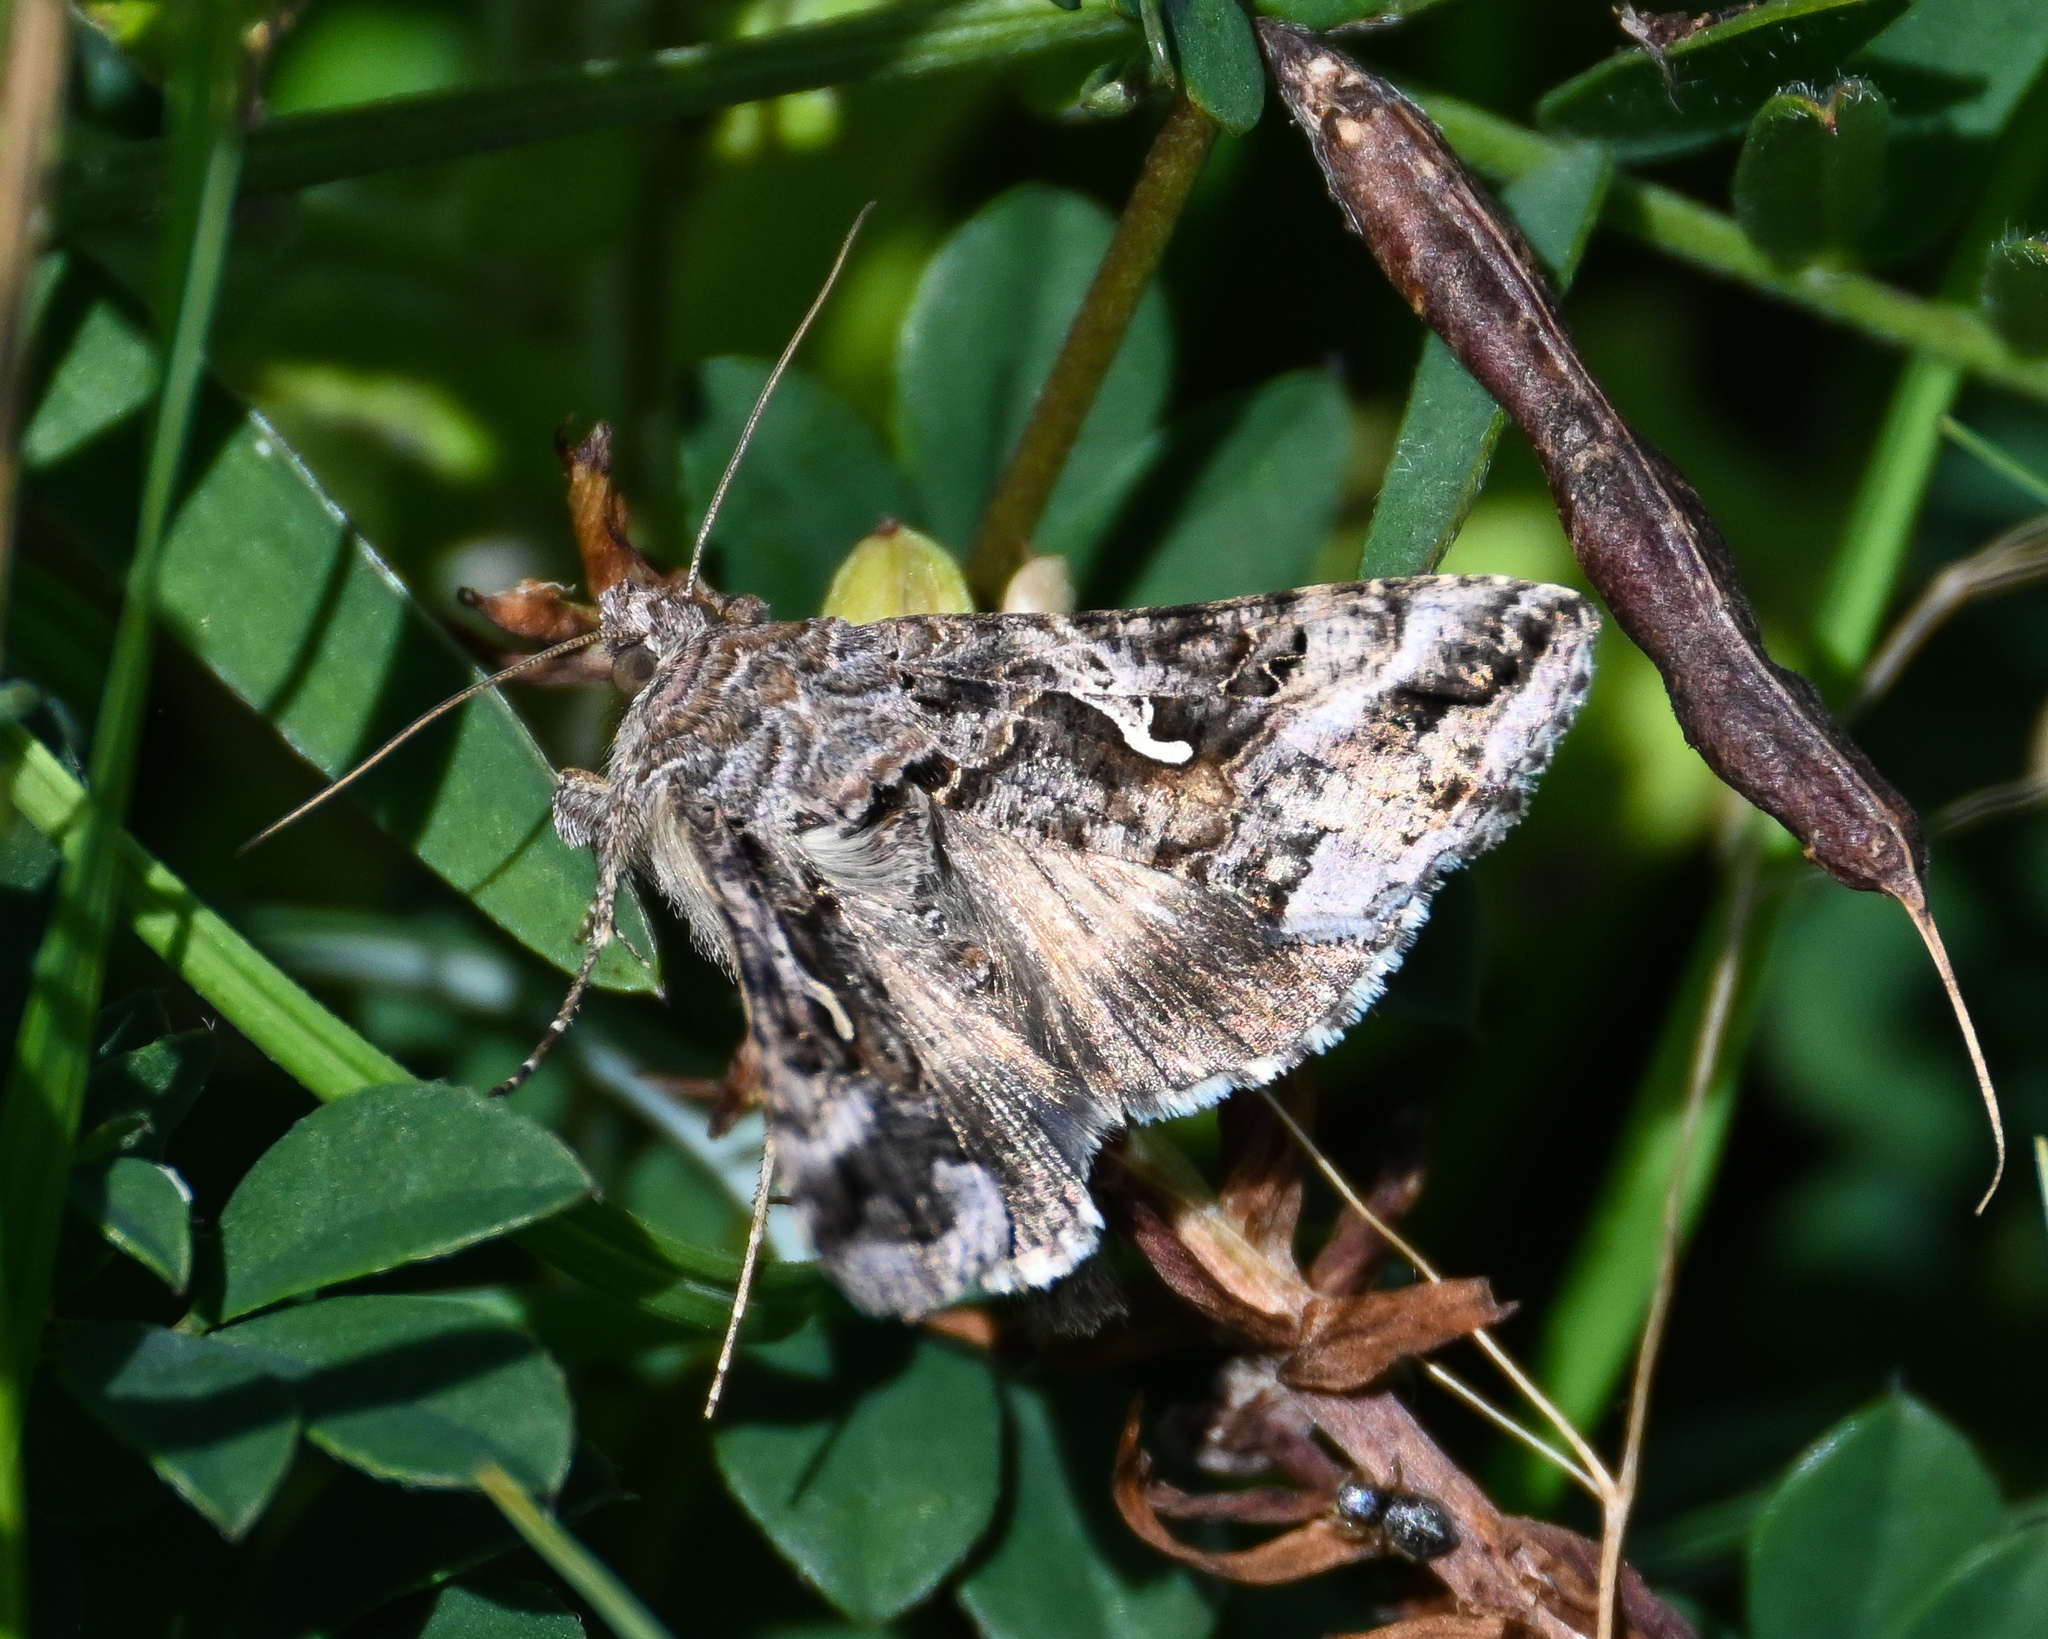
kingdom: Animalia
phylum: Arthropoda
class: Insecta
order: Lepidoptera
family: Noctuidae
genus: Autographa
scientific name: Autographa gamma
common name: Silver y
